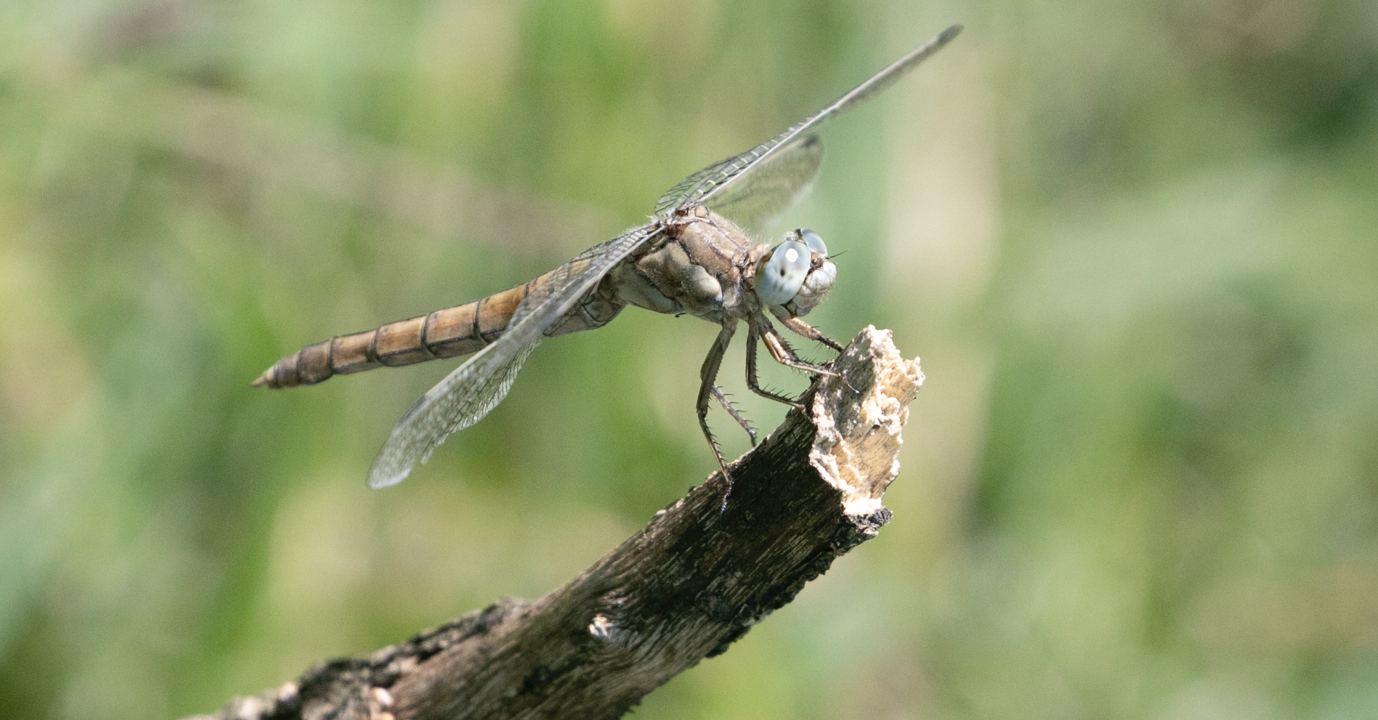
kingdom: Animalia
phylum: Arthropoda
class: Insecta
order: Odonata
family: Libellulidae
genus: Orthetrum
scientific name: Orthetrum brunneum
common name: Southern skimmer
